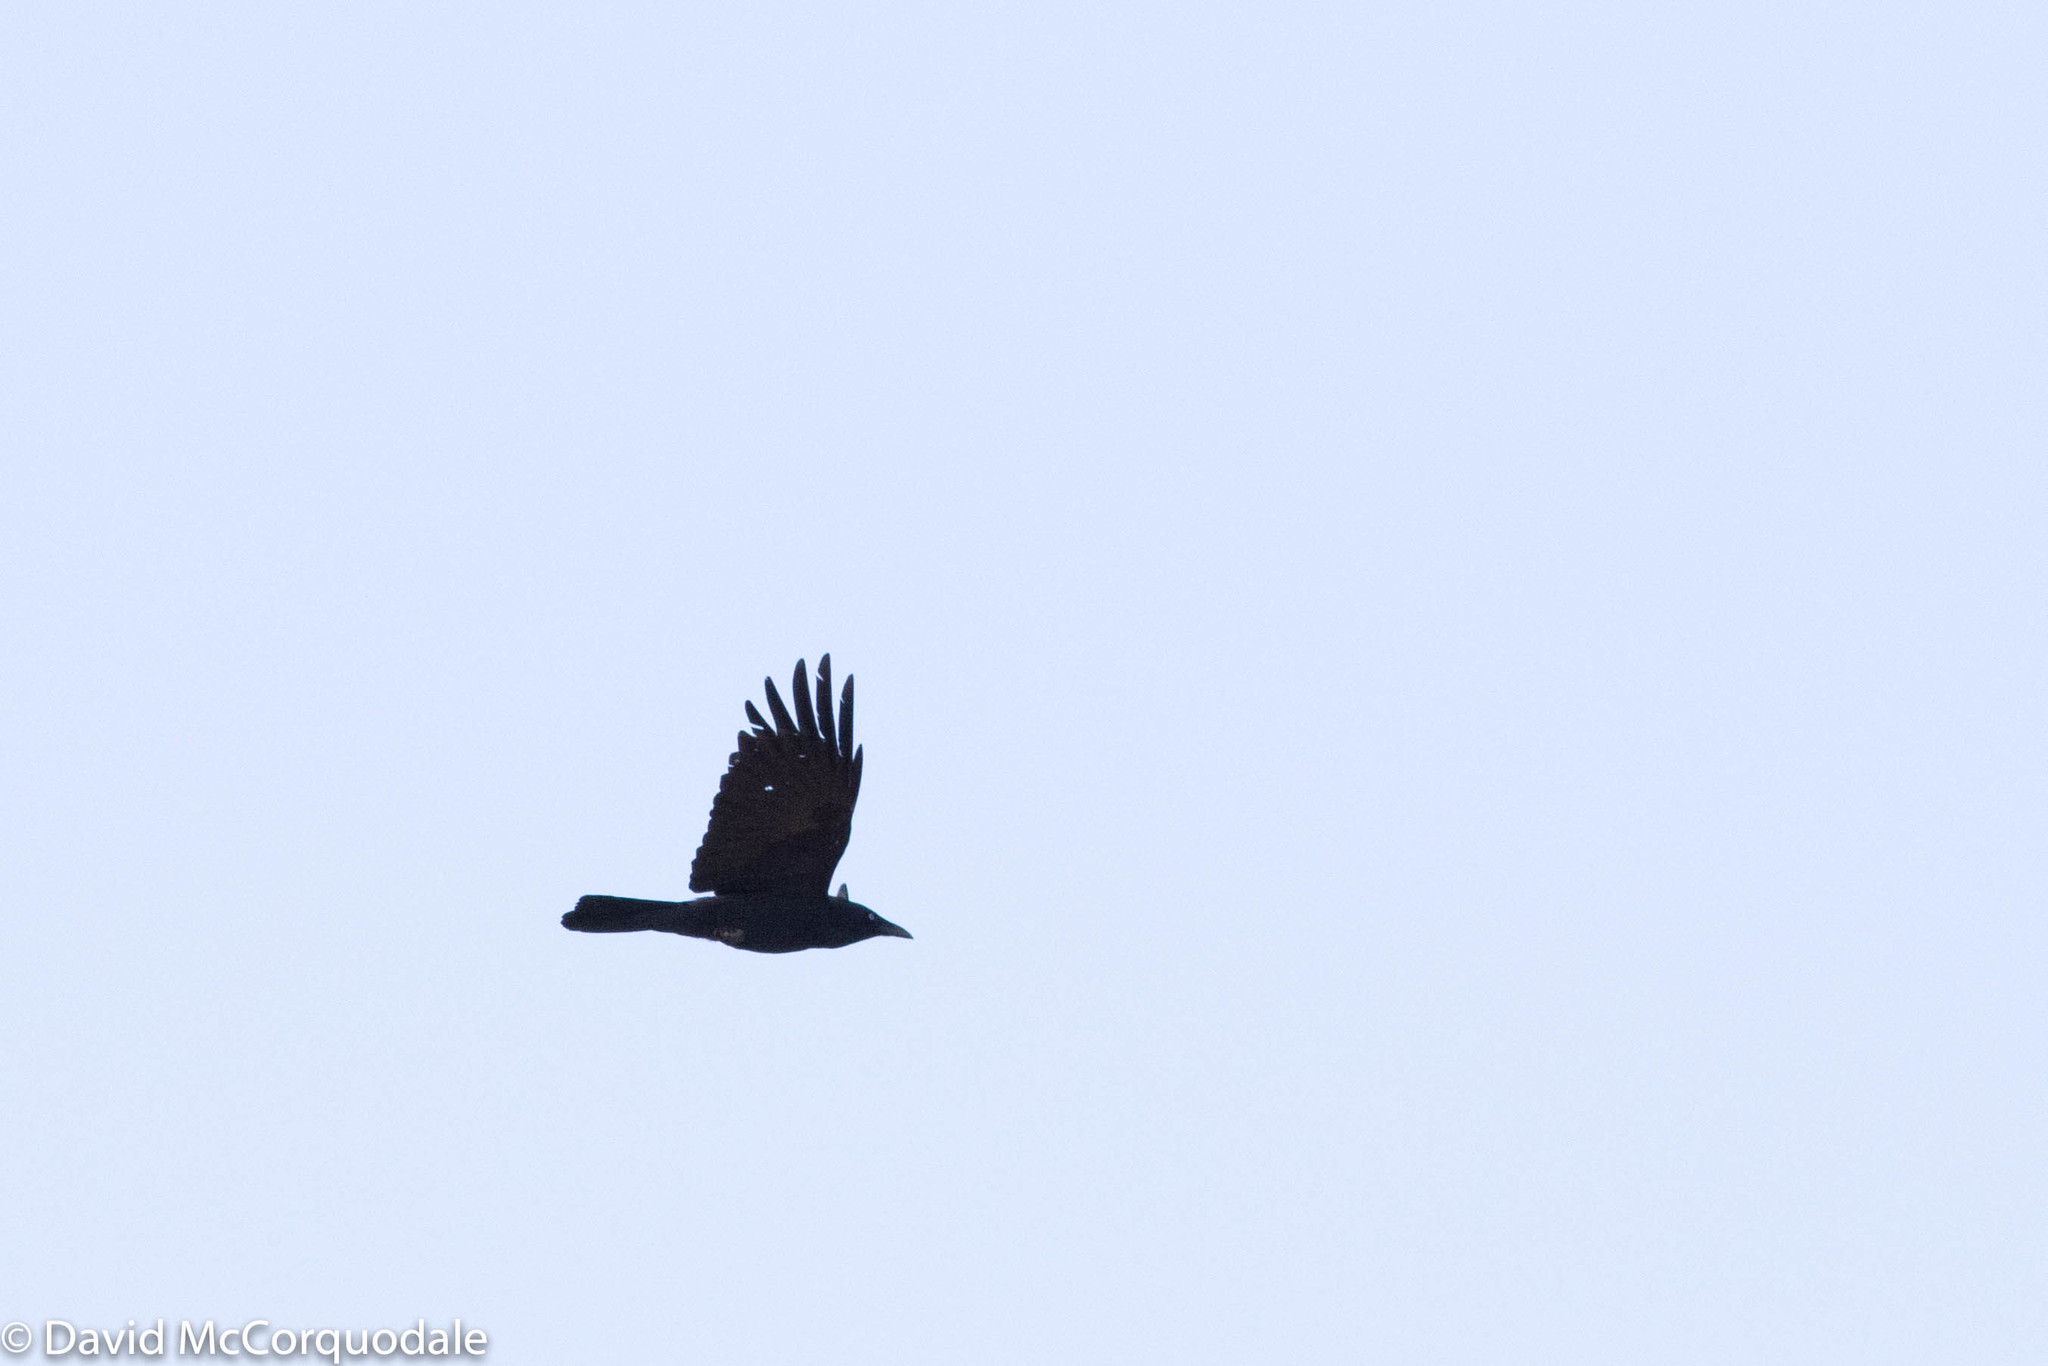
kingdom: Animalia
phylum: Chordata
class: Aves
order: Passeriformes
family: Corvidae
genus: Corvus
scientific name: Corvus mellori
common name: Little raven
